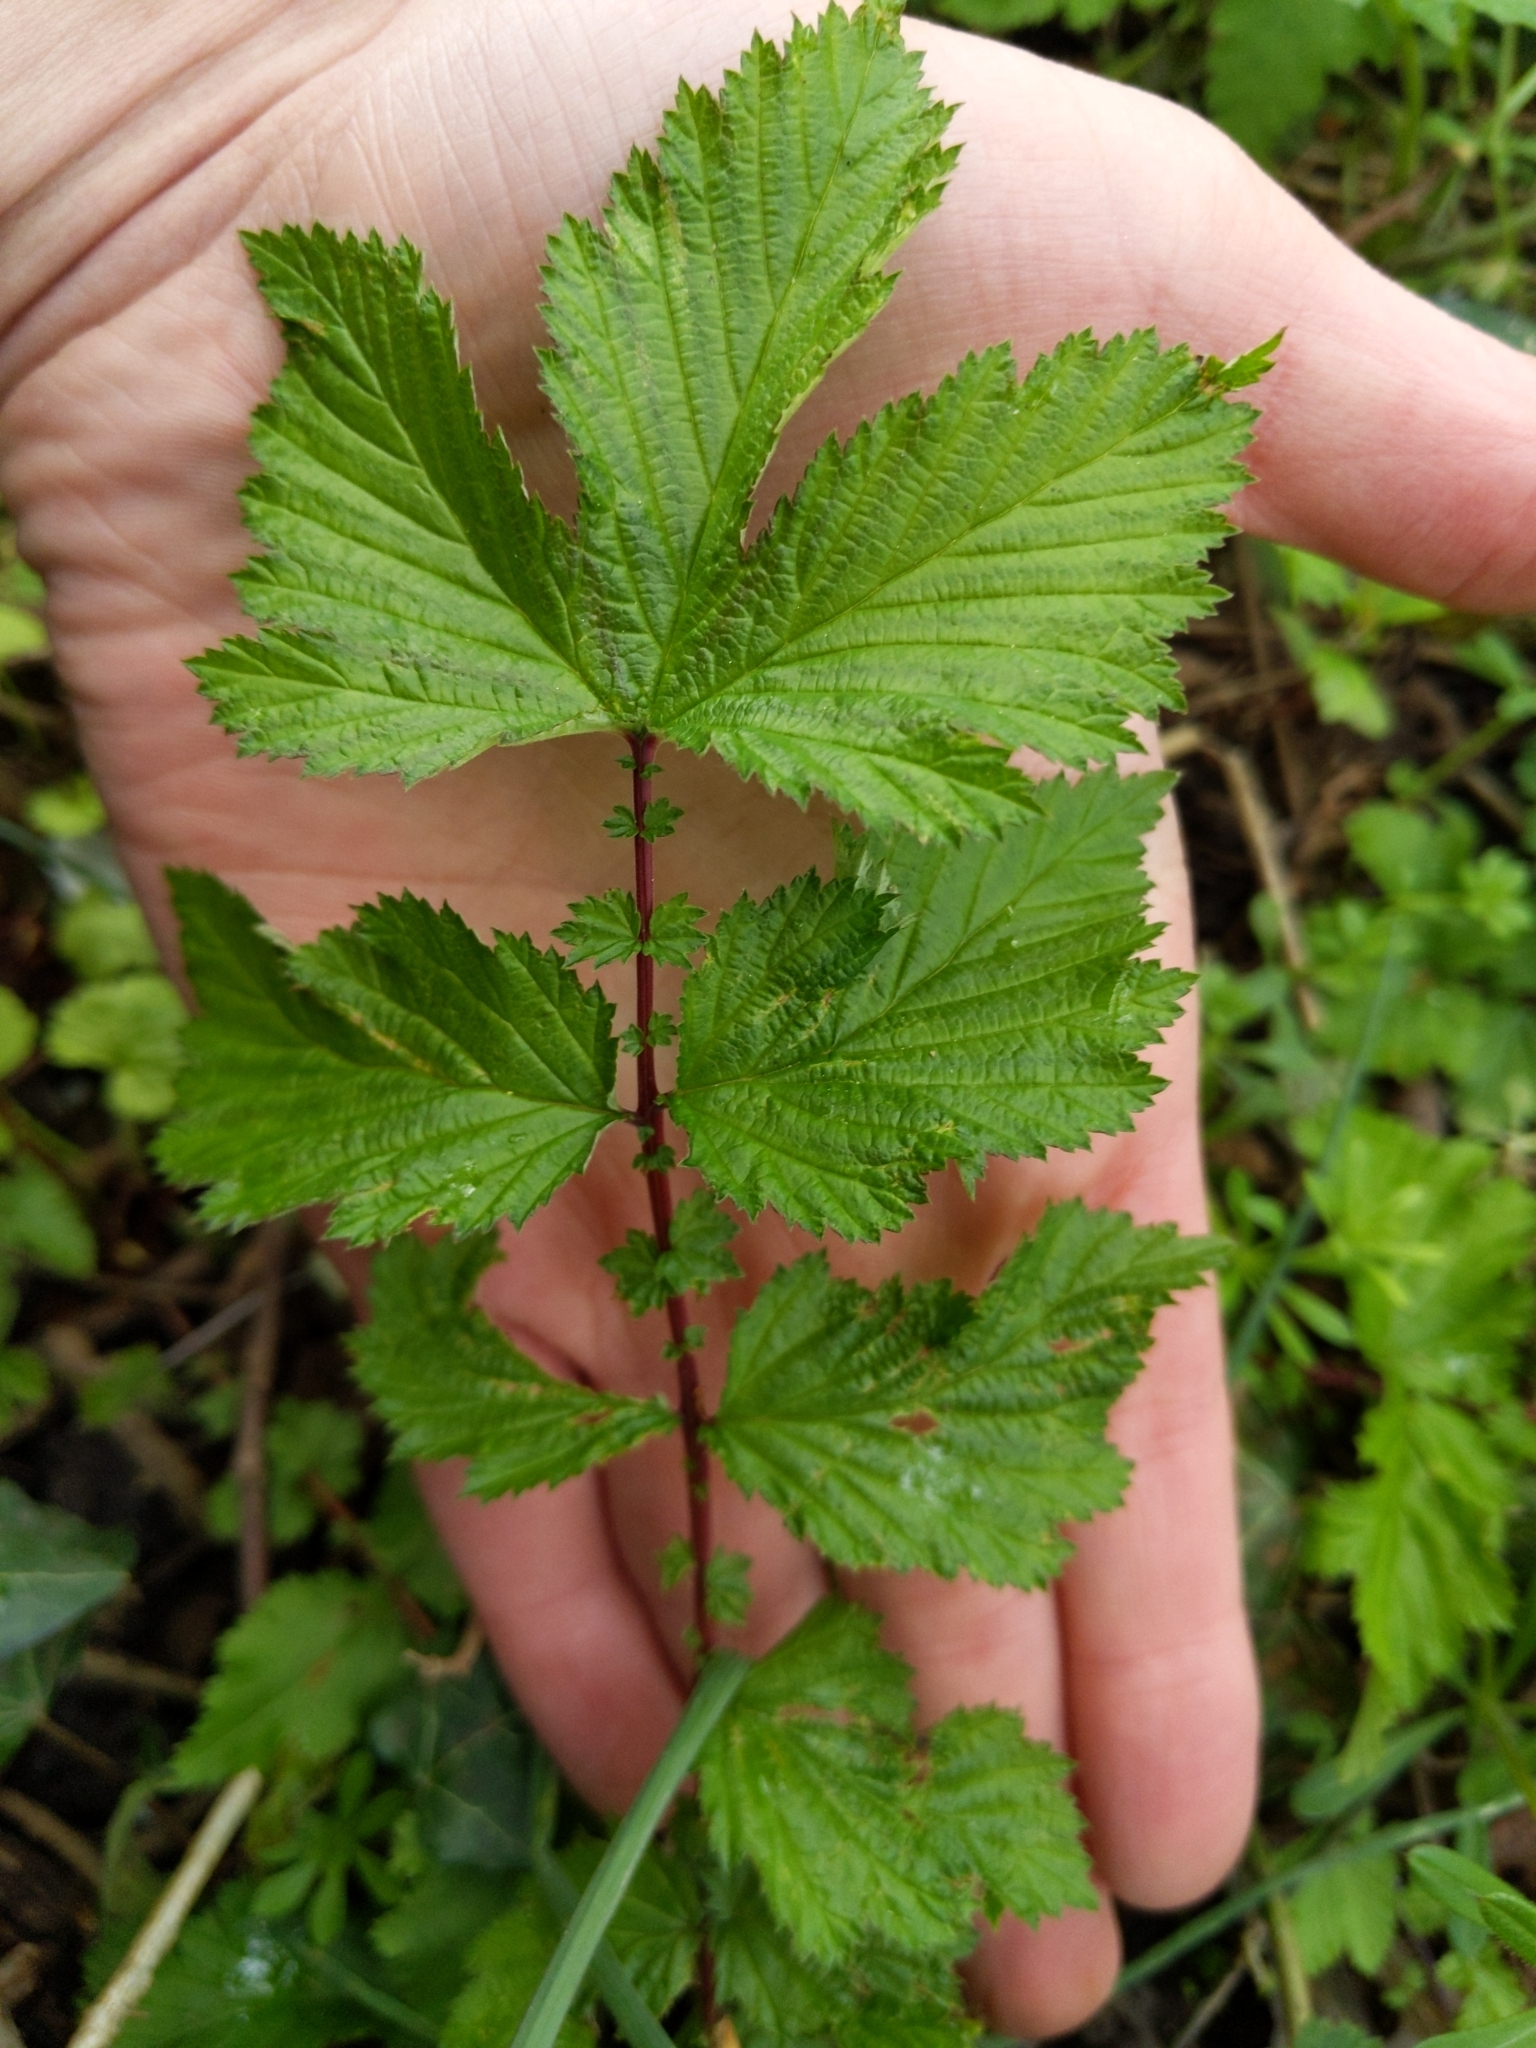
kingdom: Plantae
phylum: Tracheophyta
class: Magnoliopsida
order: Rosales
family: Rosaceae
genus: Filipendula
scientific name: Filipendula ulmaria
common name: Meadowsweet
